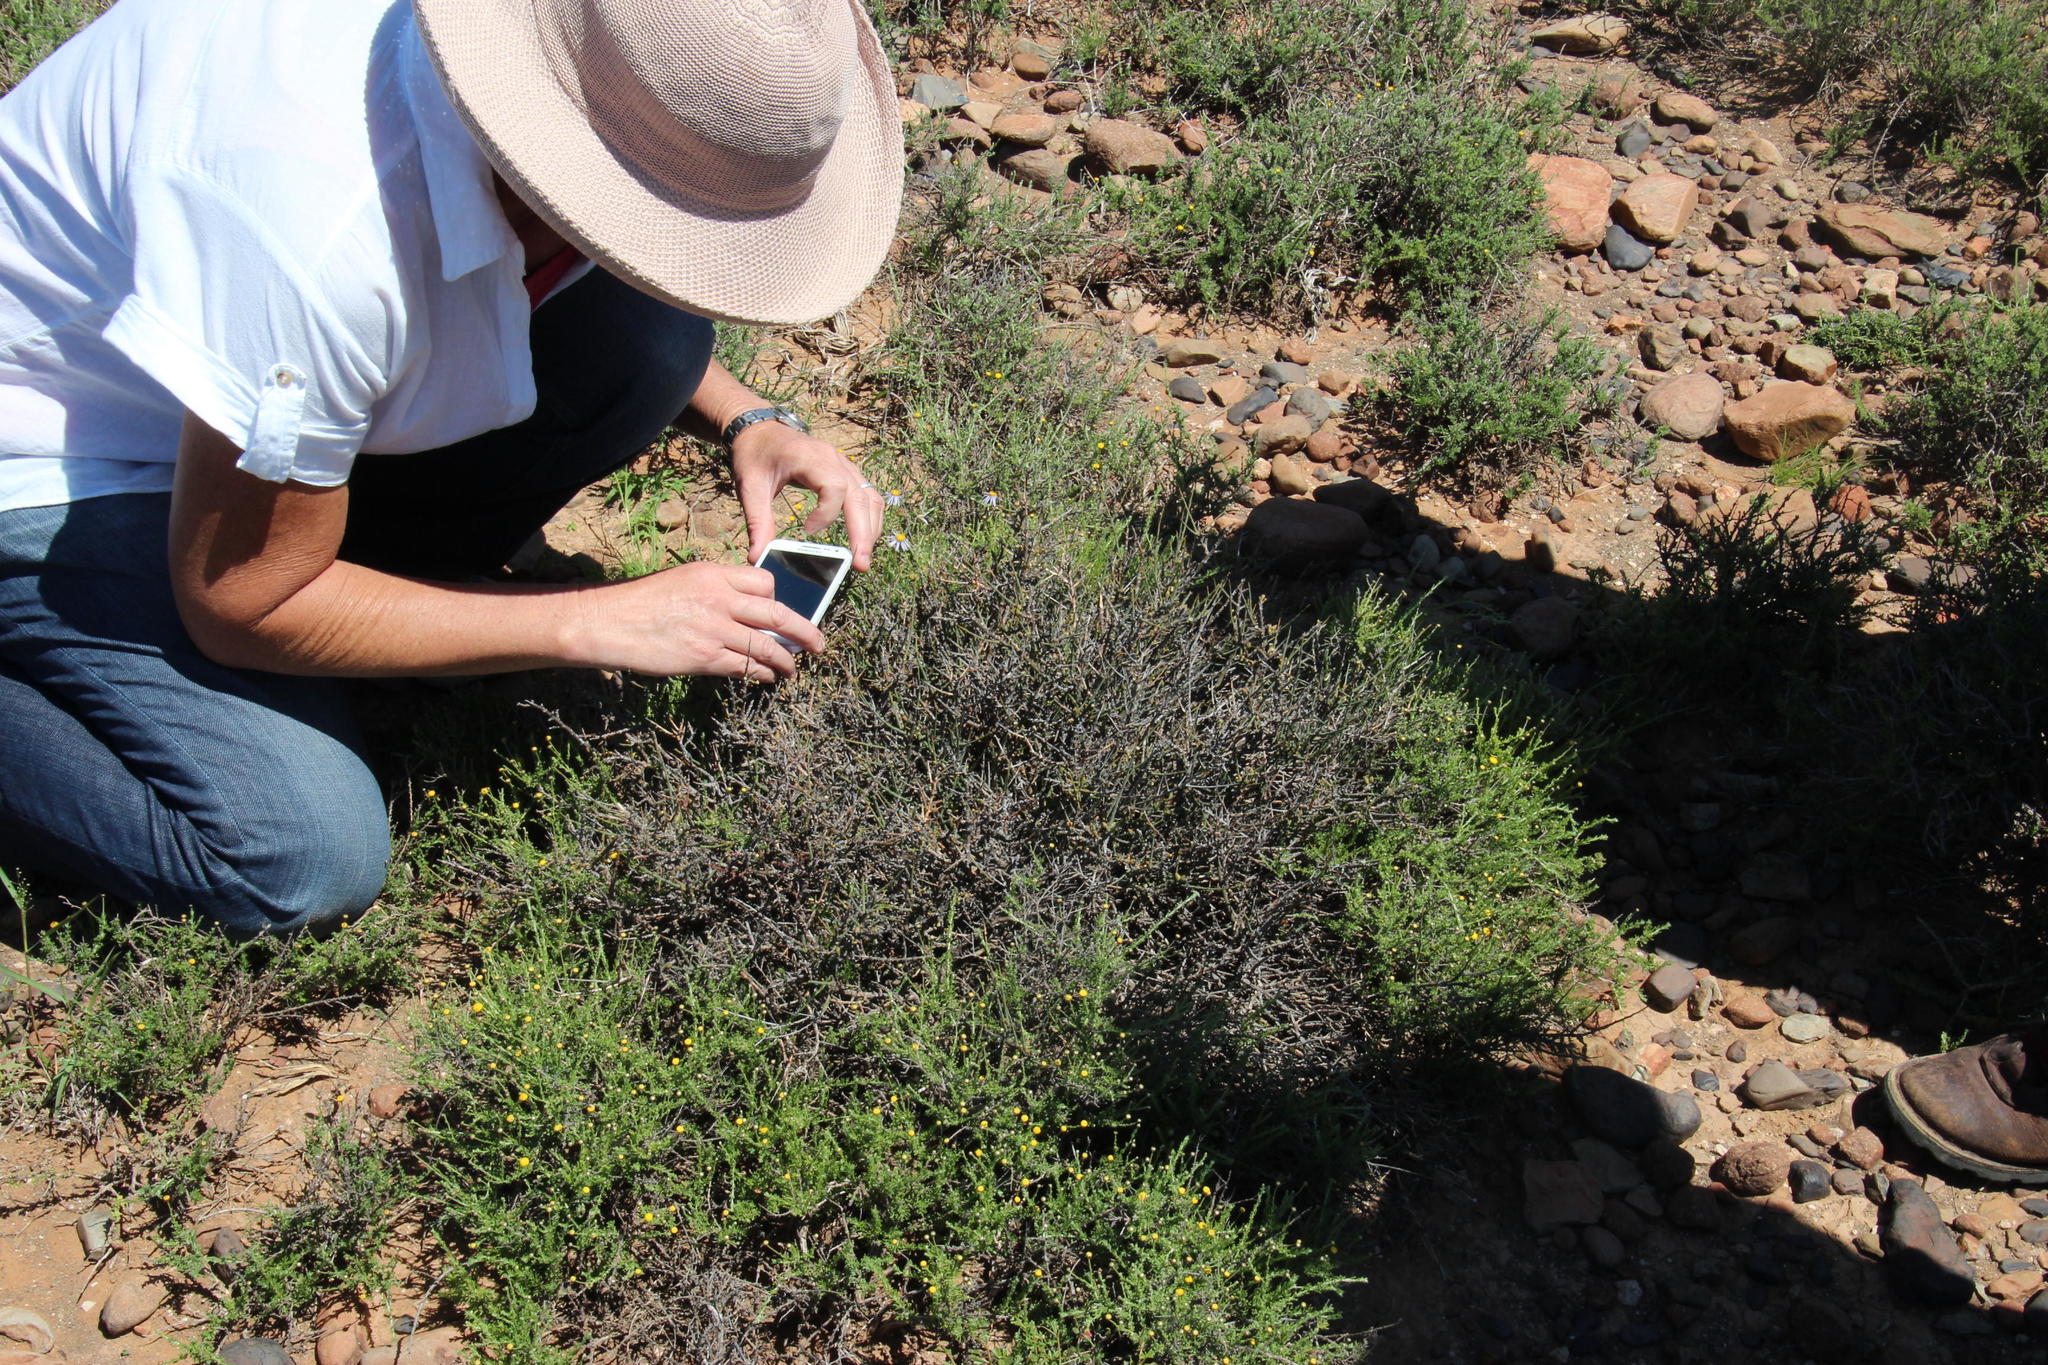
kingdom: Plantae
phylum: Tracheophyta
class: Magnoliopsida
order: Santalales
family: Thesiaceae
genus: Thesium
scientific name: Thesium hystrix
